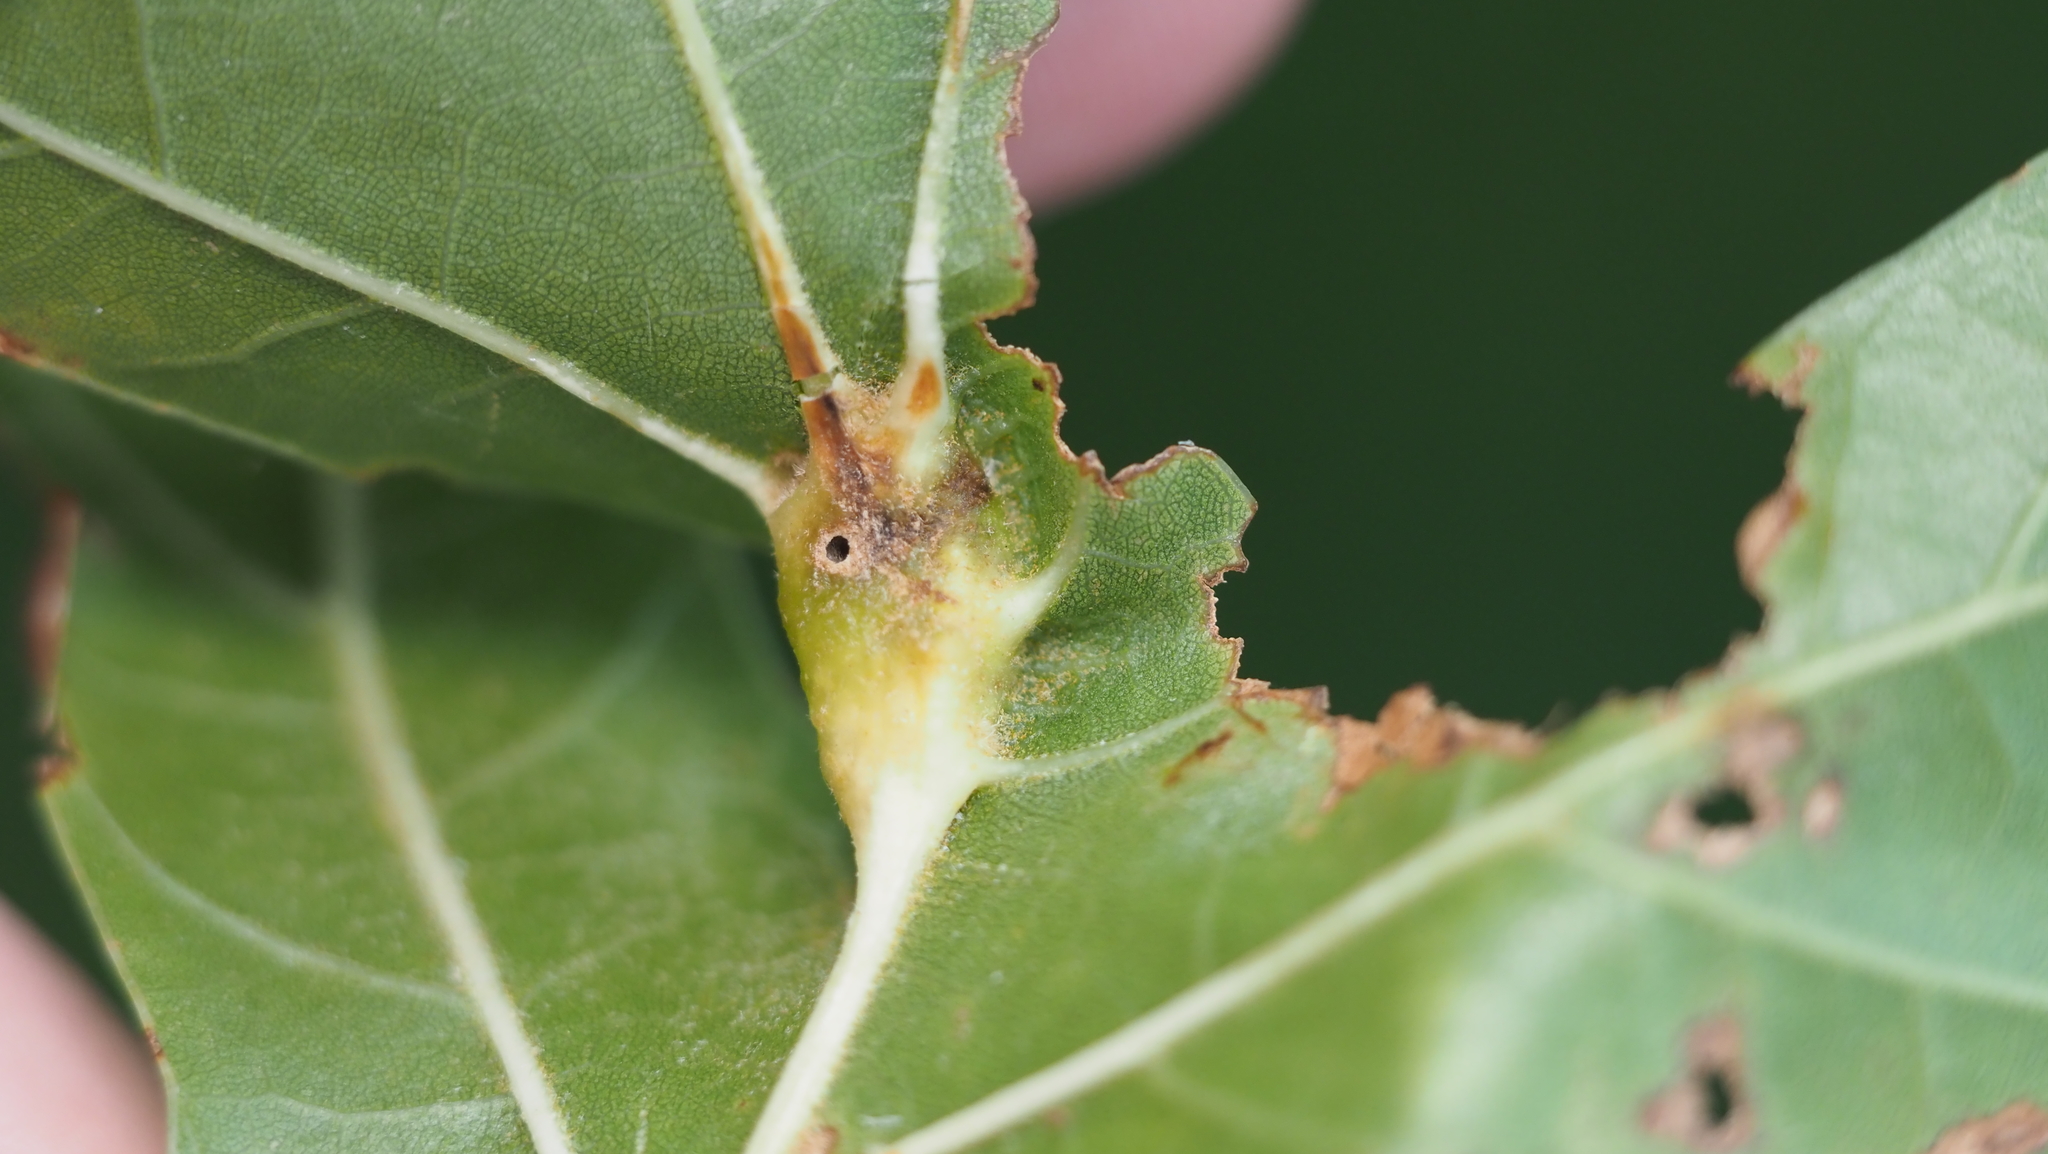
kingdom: Animalia
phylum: Arthropoda
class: Insecta
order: Hymenoptera
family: Cynipidae
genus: Melikaiella
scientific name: Melikaiella tumifica
